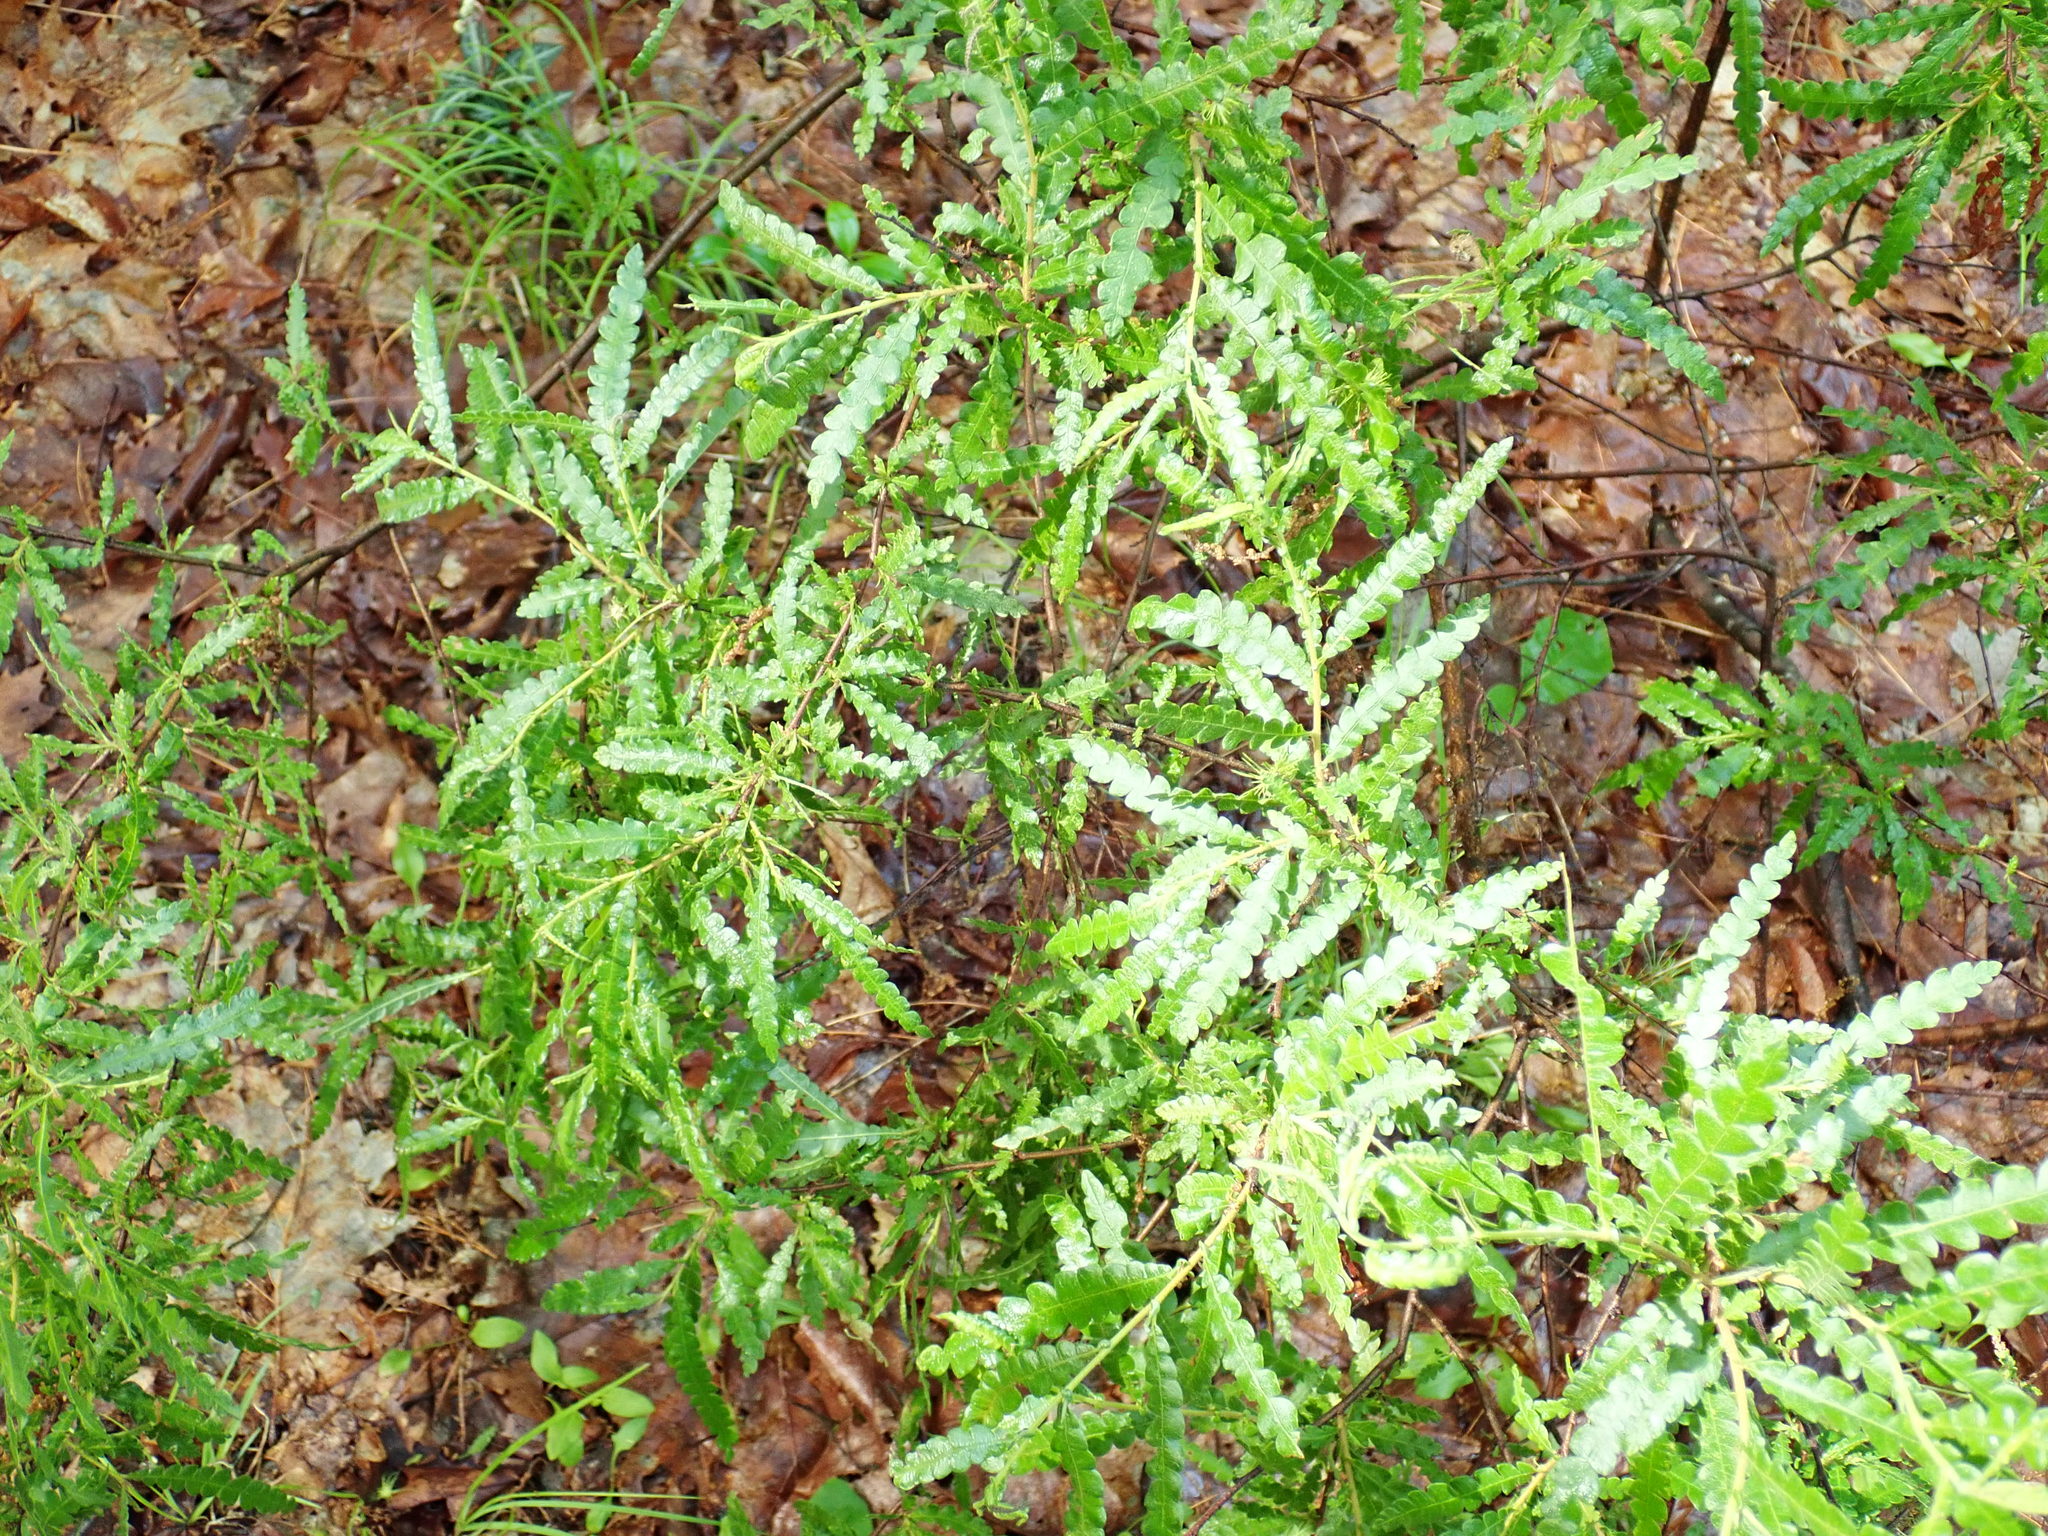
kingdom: Plantae
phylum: Tracheophyta
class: Magnoliopsida
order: Fagales
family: Myricaceae
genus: Comptonia
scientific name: Comptonia peregrina
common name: Sweet-fern
